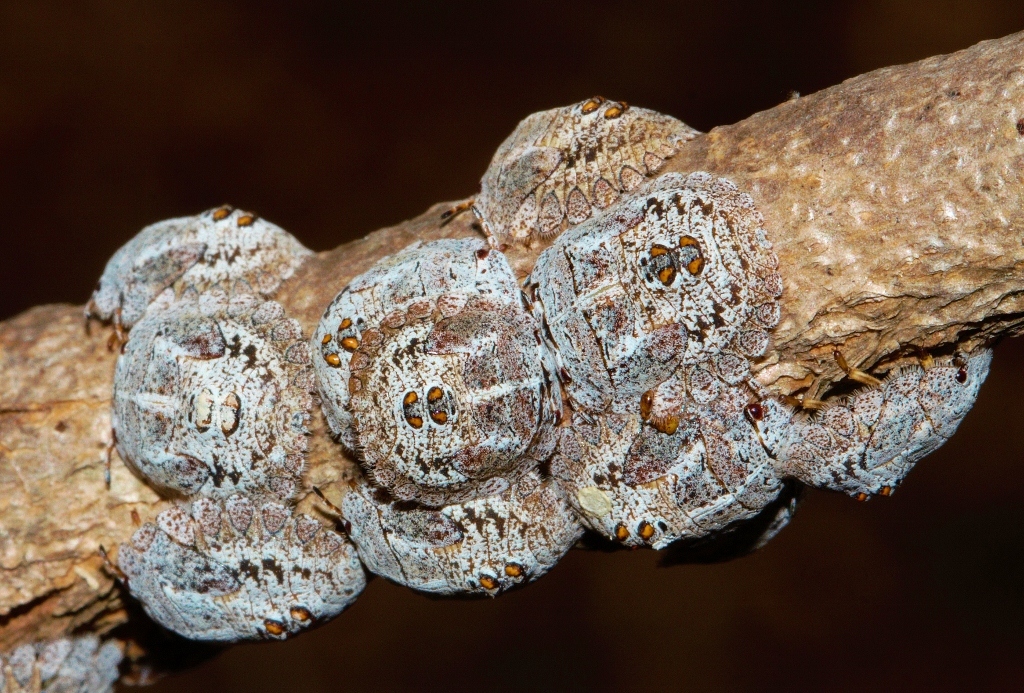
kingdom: Animalia
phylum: Arthropoda
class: Insecta
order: Hemiptera
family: Plataspidae
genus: Libyaspis
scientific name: Libyaspis
